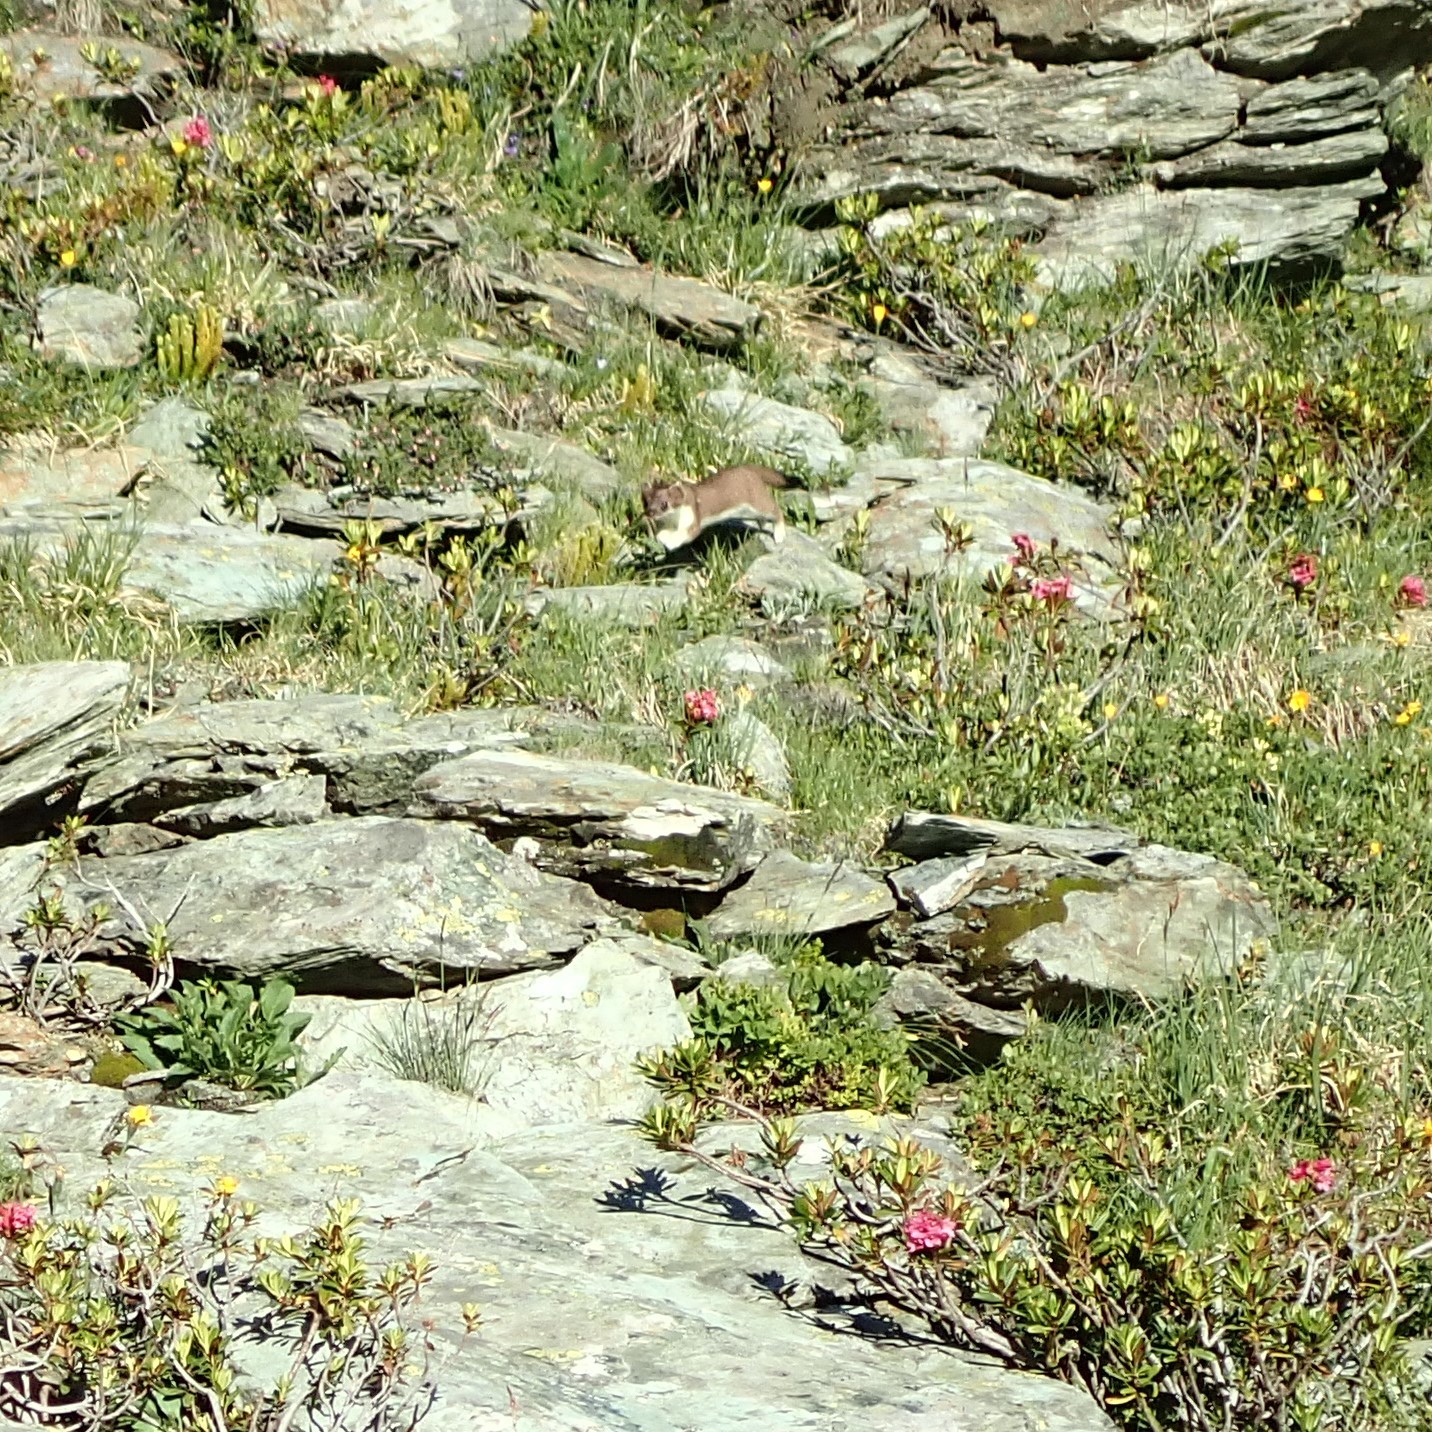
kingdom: Animalia
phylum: Chordata
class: Mammalia
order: Carnivora
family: Mustelidae
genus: Mustela
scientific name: Mustela erminea
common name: Stoat
